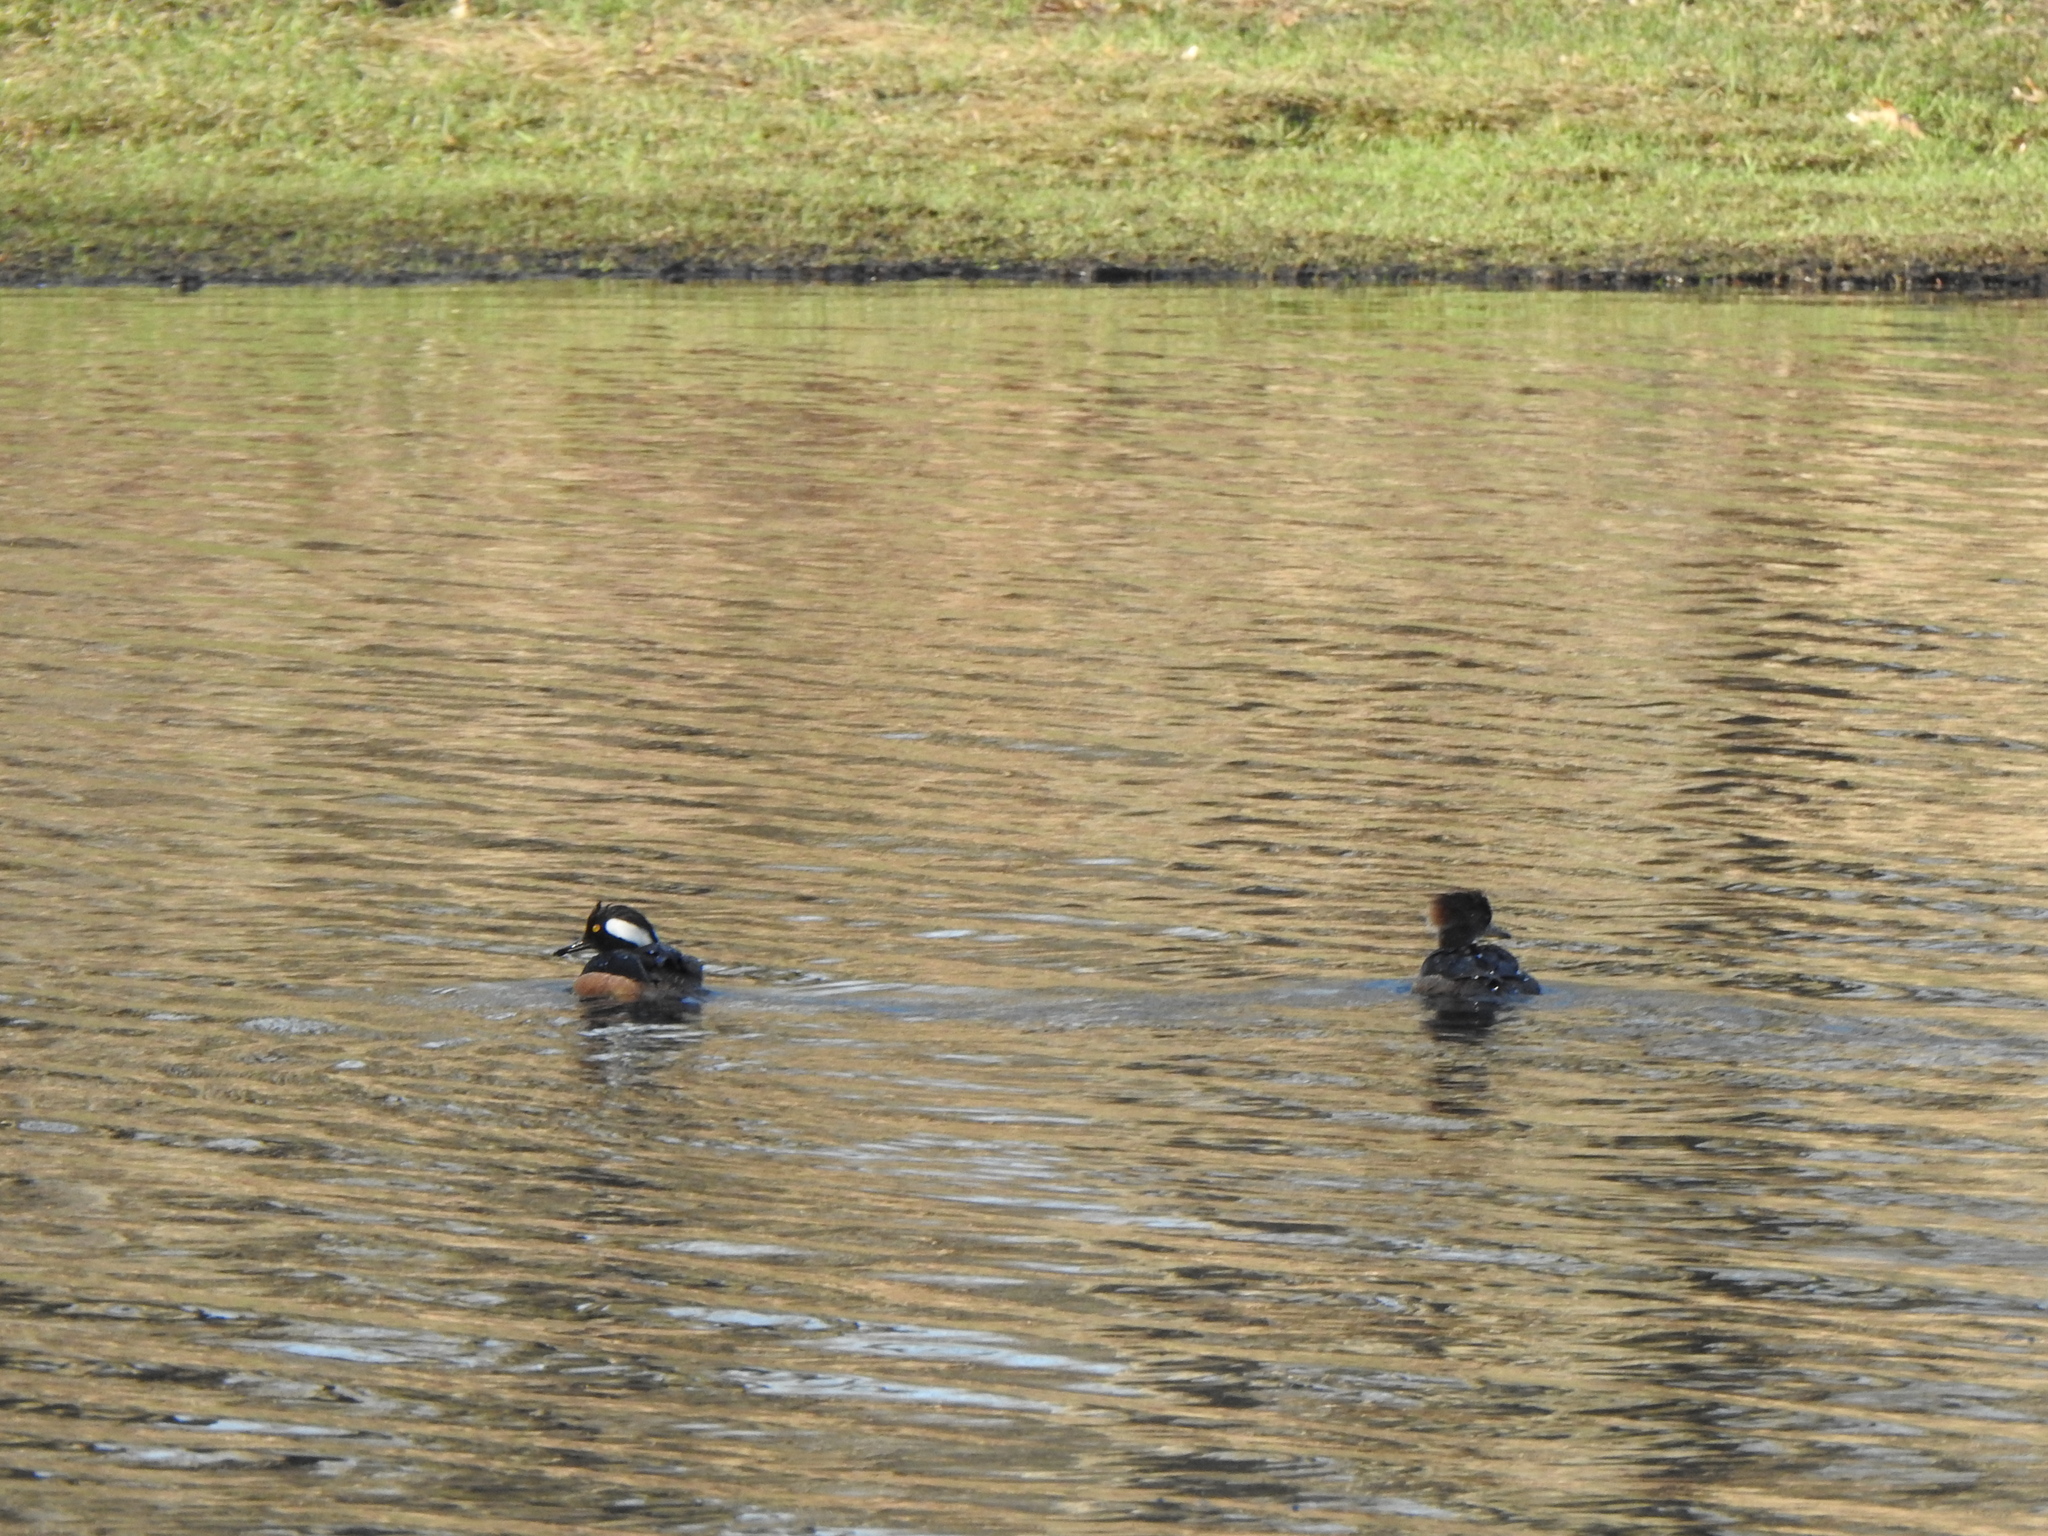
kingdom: Animalia
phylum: Chordata
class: Aves
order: Anseriformes
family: Anatidae
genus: Lophodytes
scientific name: Lophodytes cucullatus
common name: Hooded merganser
